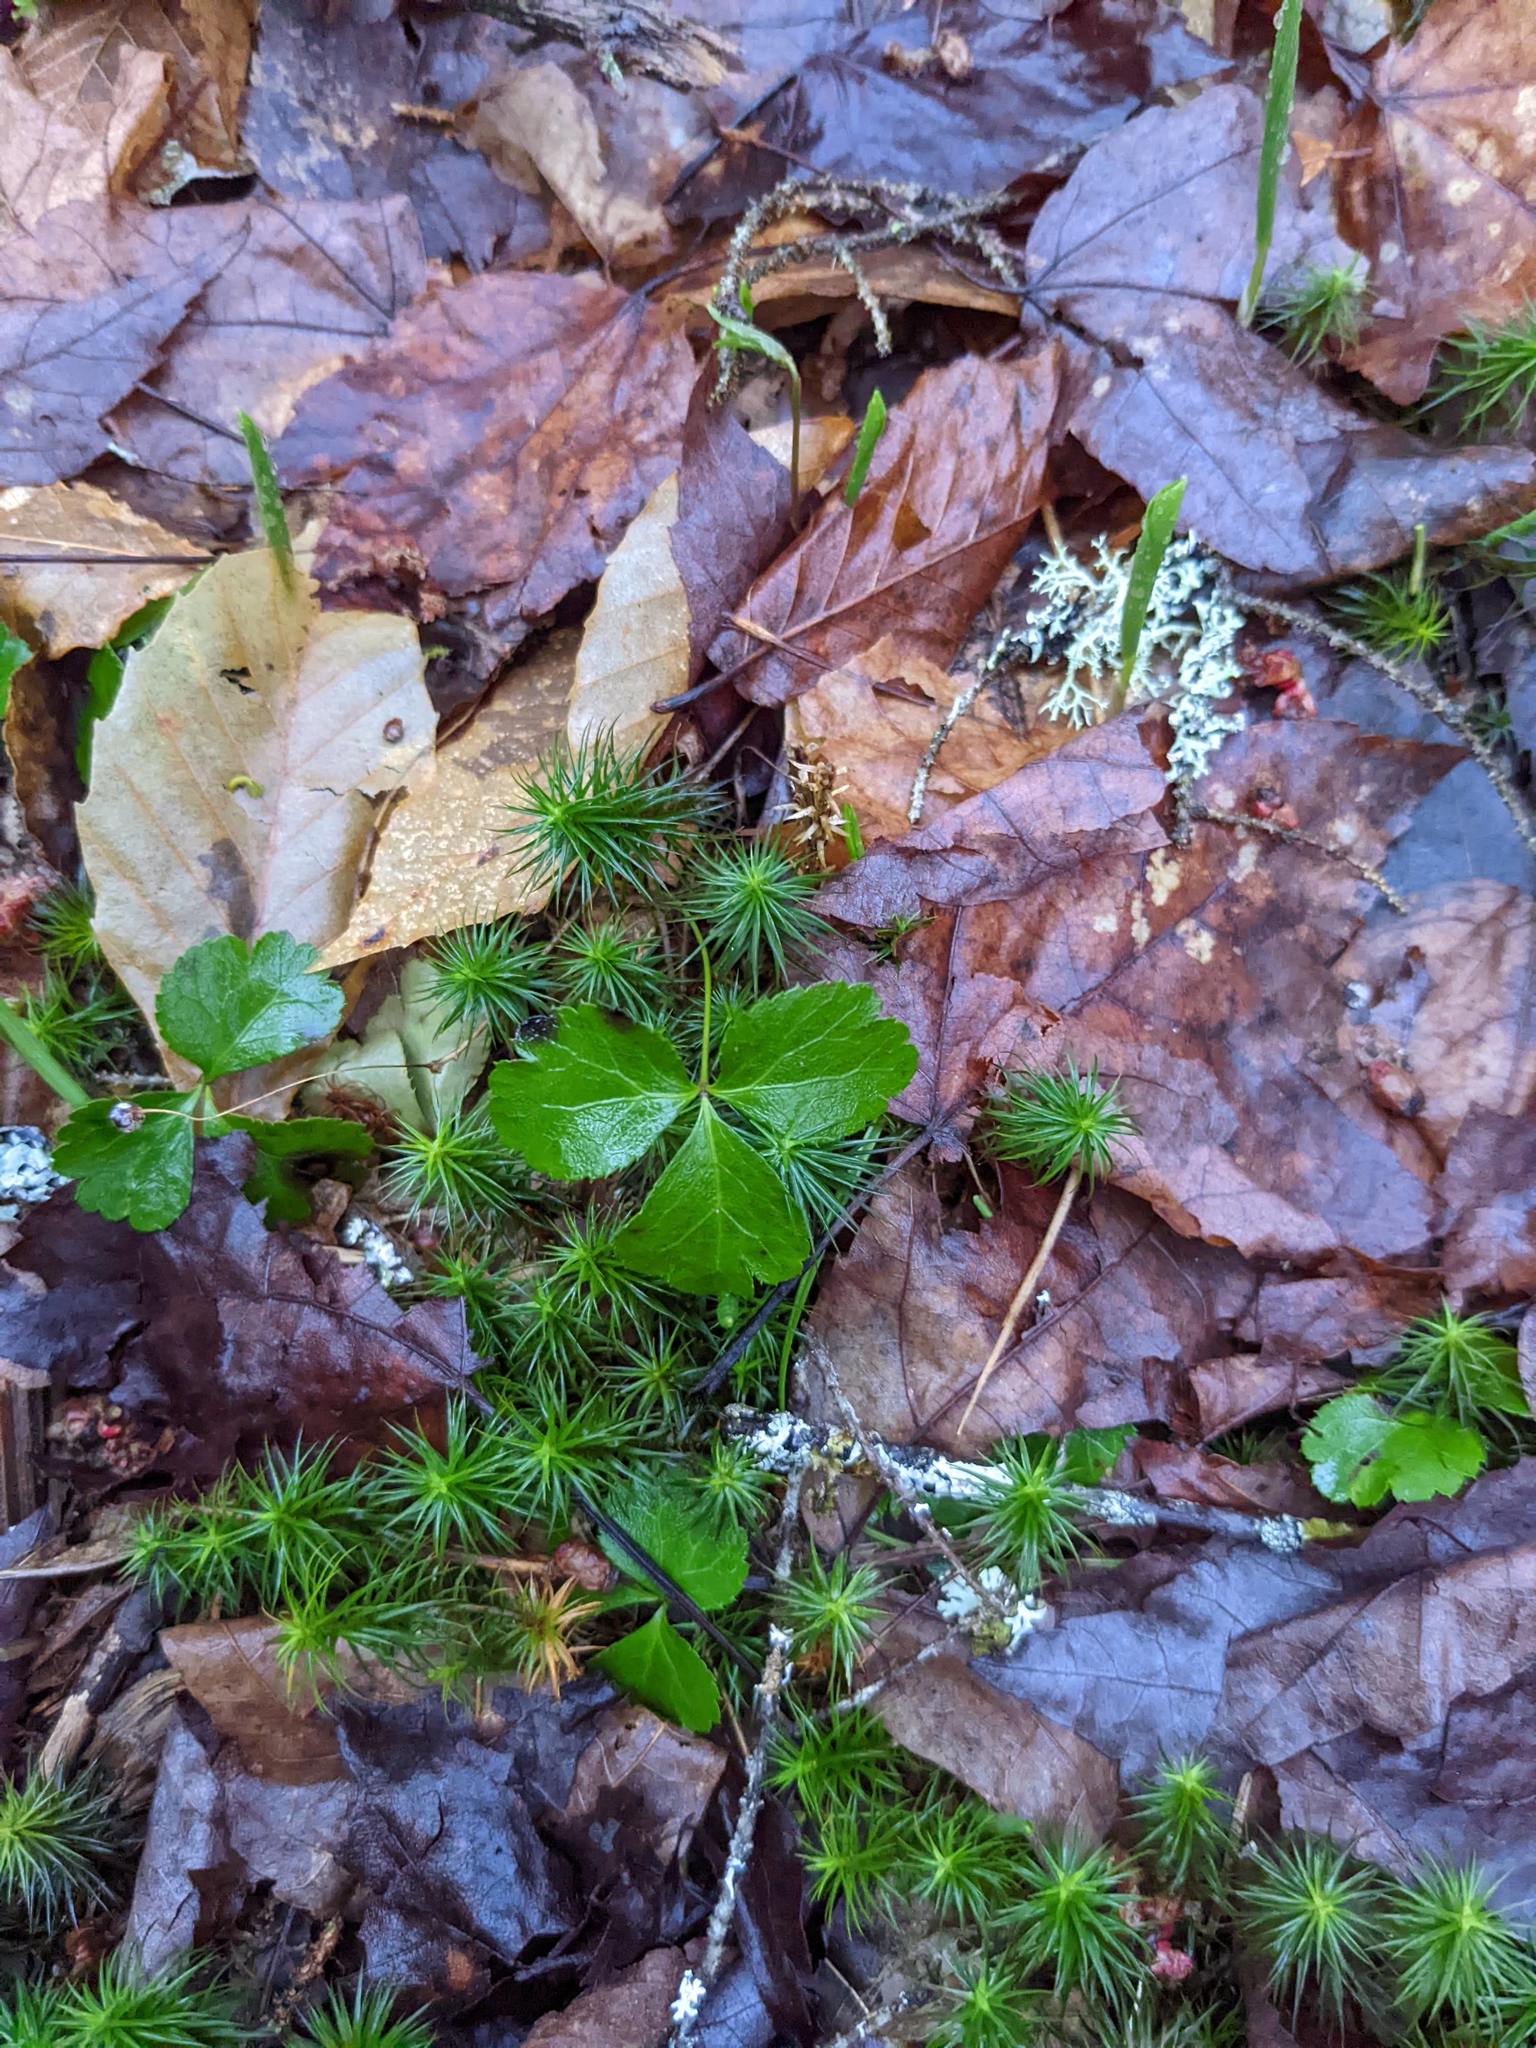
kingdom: Plantae
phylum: Tracheophyta
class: Magnoliopsida
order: Ranunculales
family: Ranunculaceae
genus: Coptis
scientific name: Coptis trifolia
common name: Canker-root
